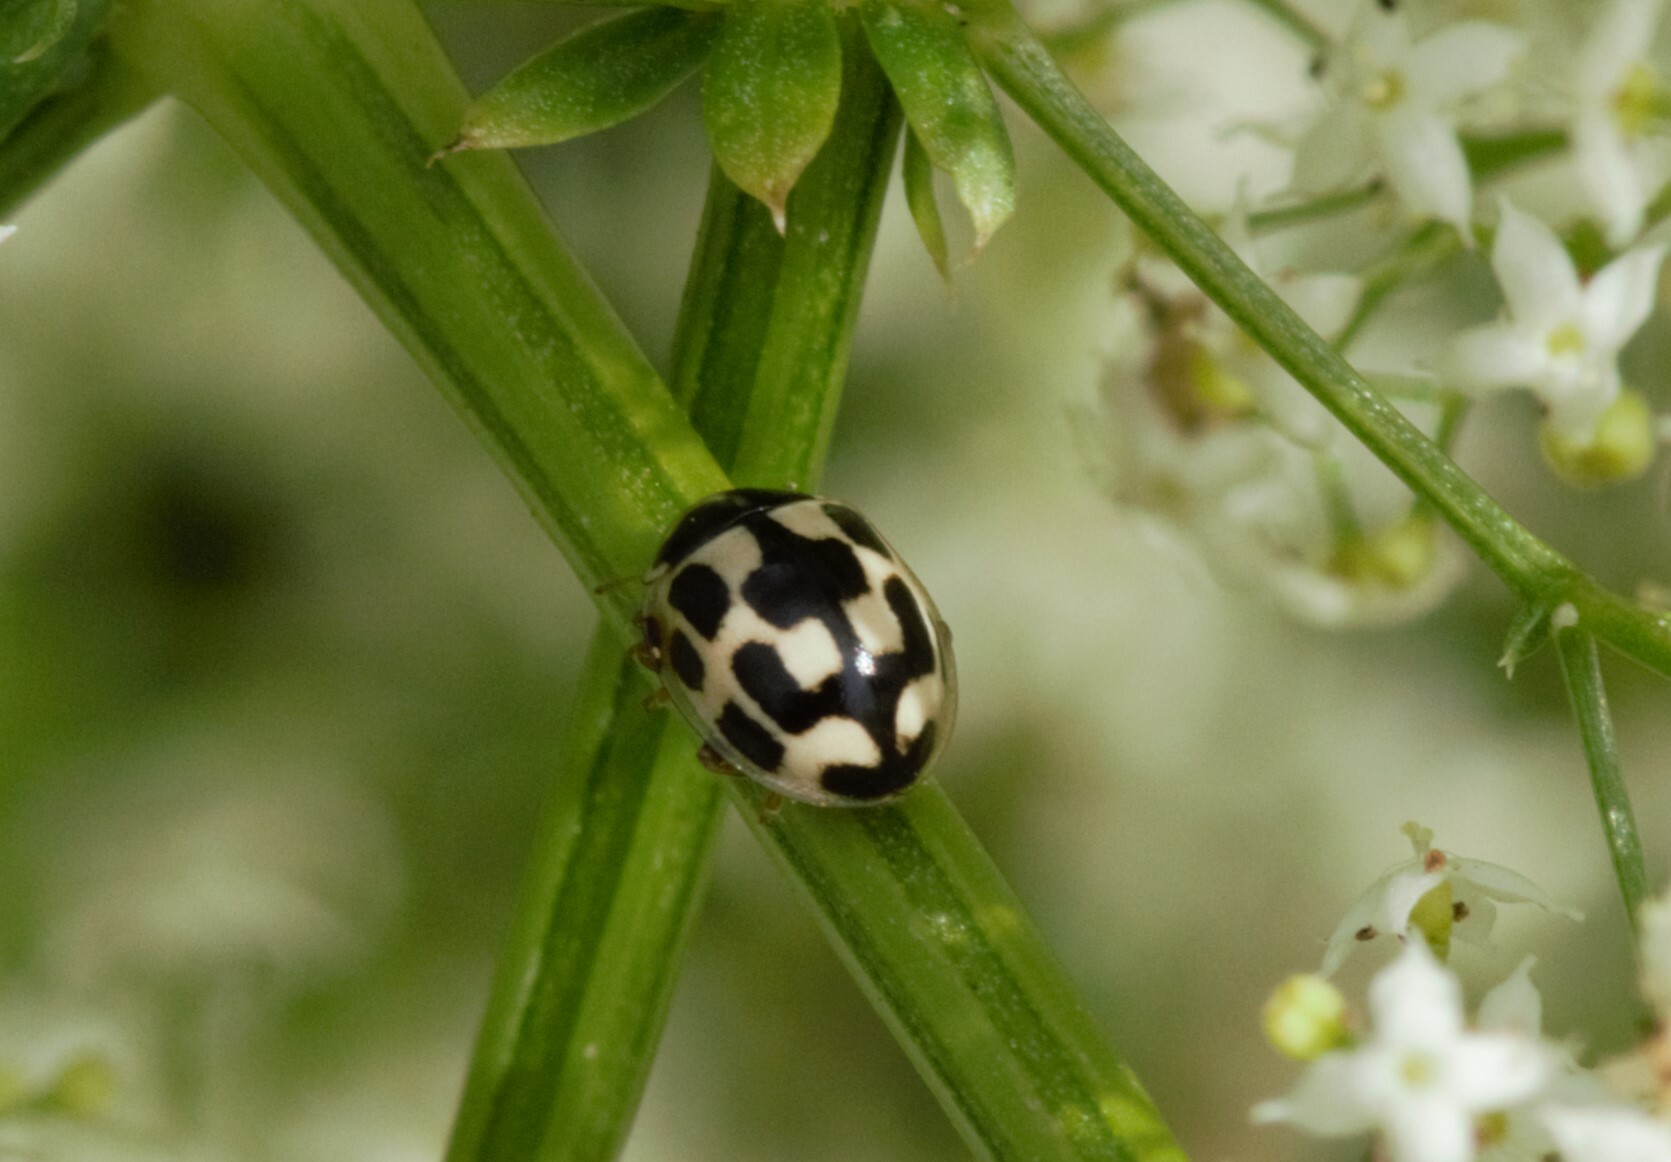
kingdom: Animalia
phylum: Arthropoda
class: Insecta
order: Coleoptera
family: Coccinellidae
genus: Propylaea
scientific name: Propylaea quatuordecimpunctata
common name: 14-spotted ladybird beetle
